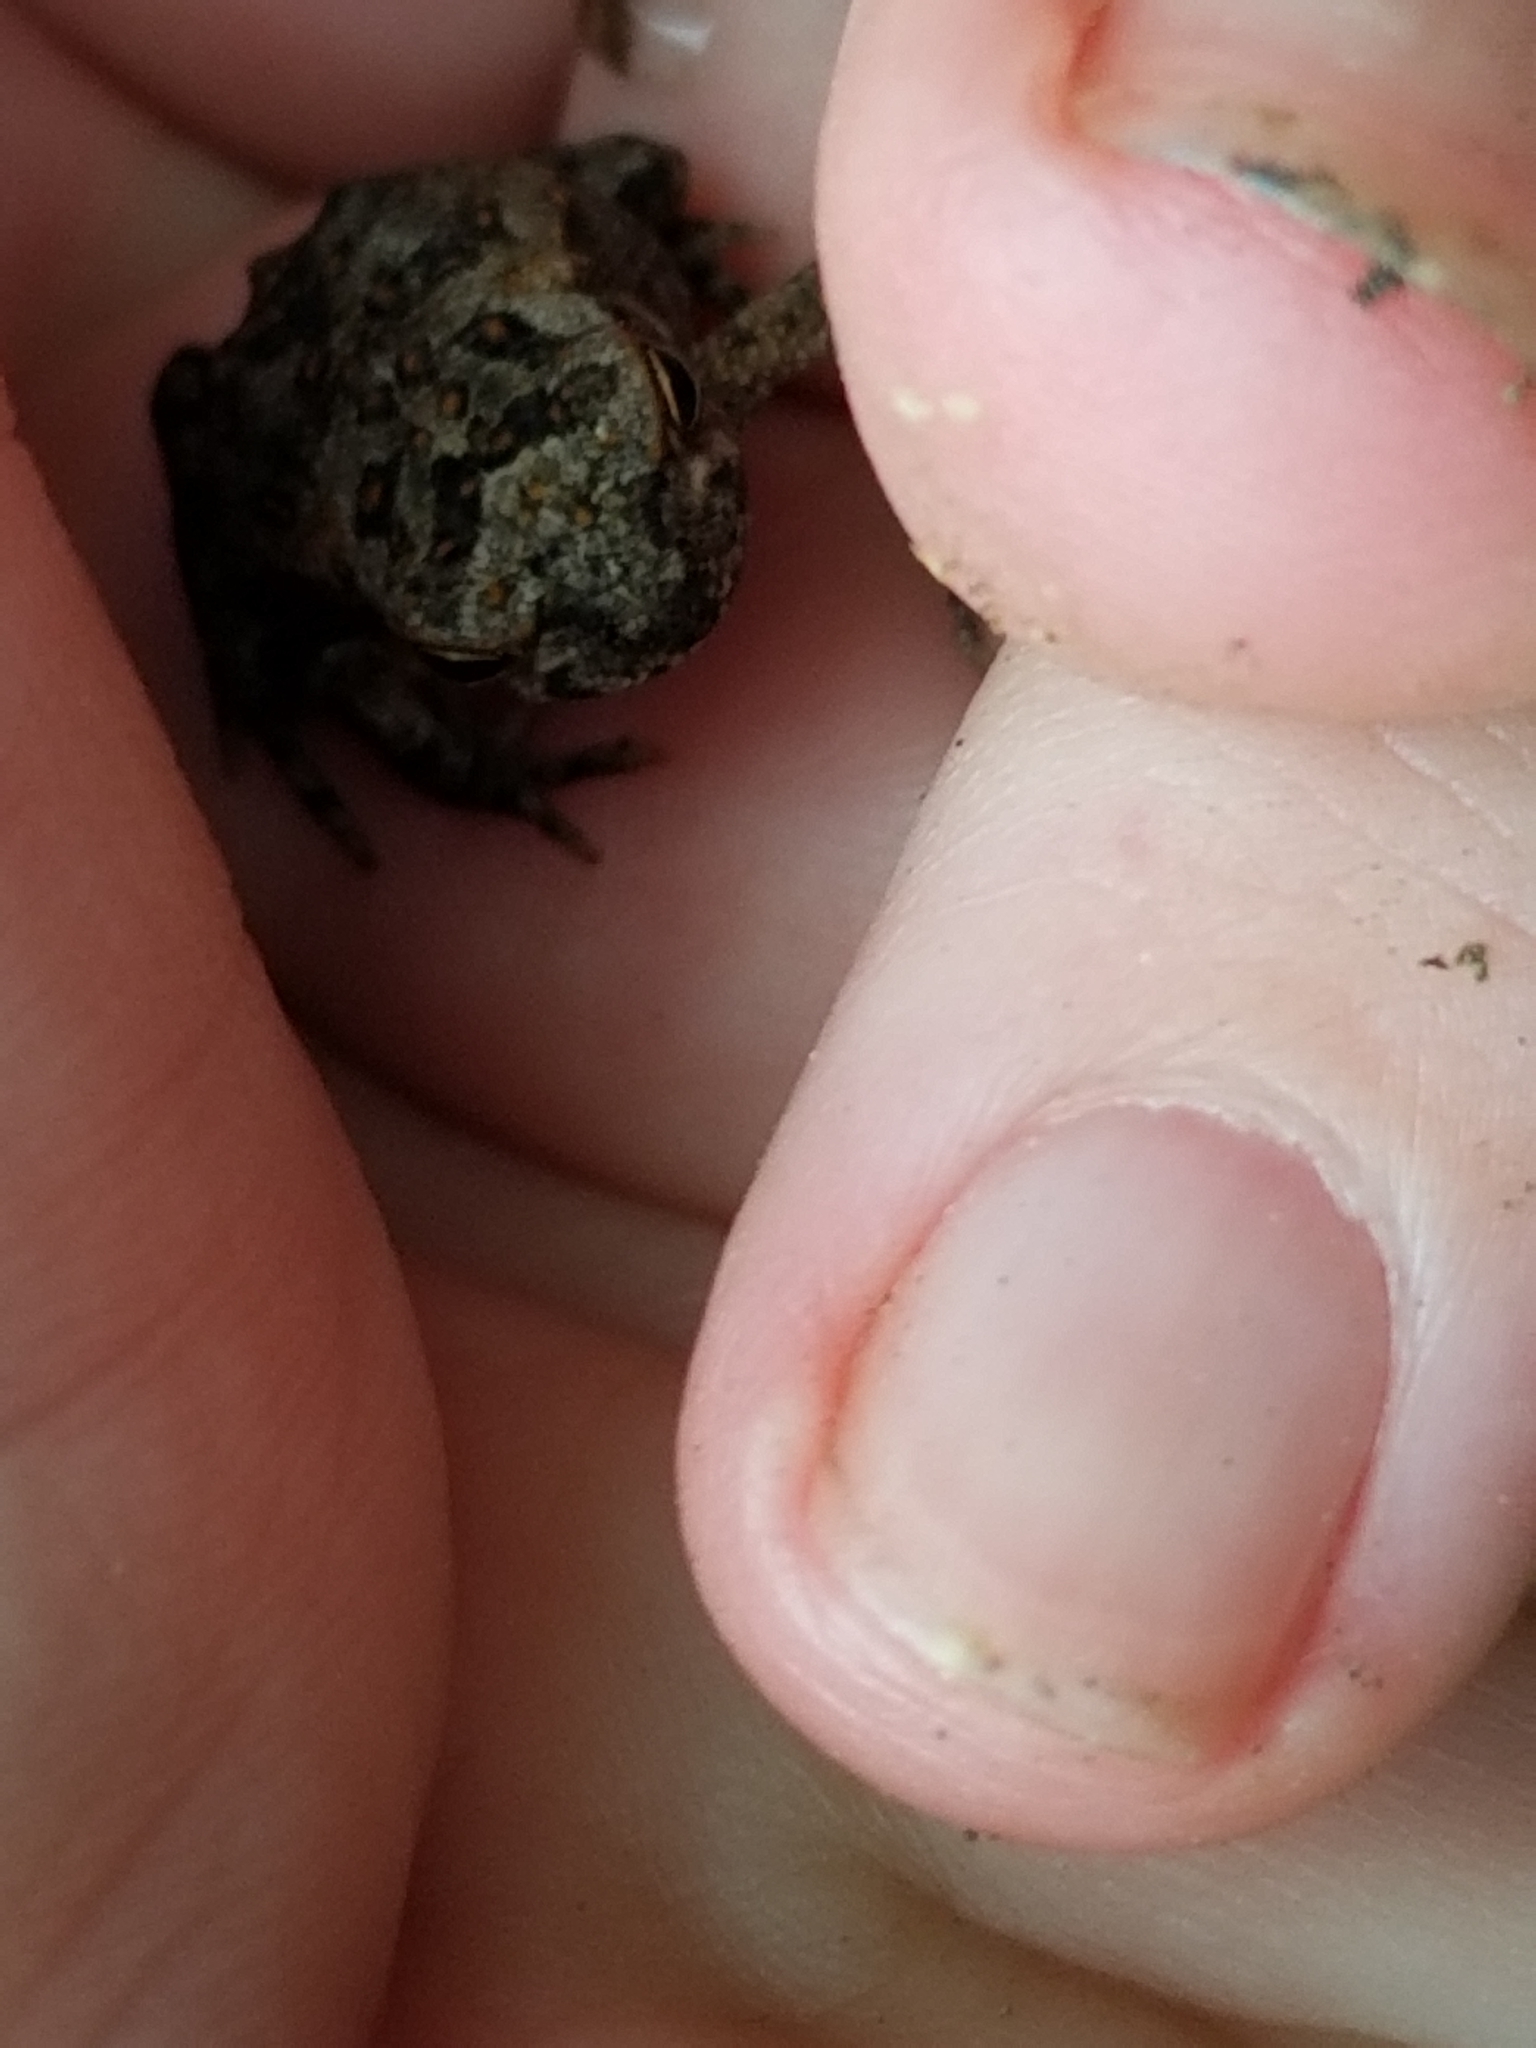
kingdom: Animalia
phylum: Chordata
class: Amphibia
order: Anura
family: Bufonidae
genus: Rhinella
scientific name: Rhinella marina
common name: Cane toad
